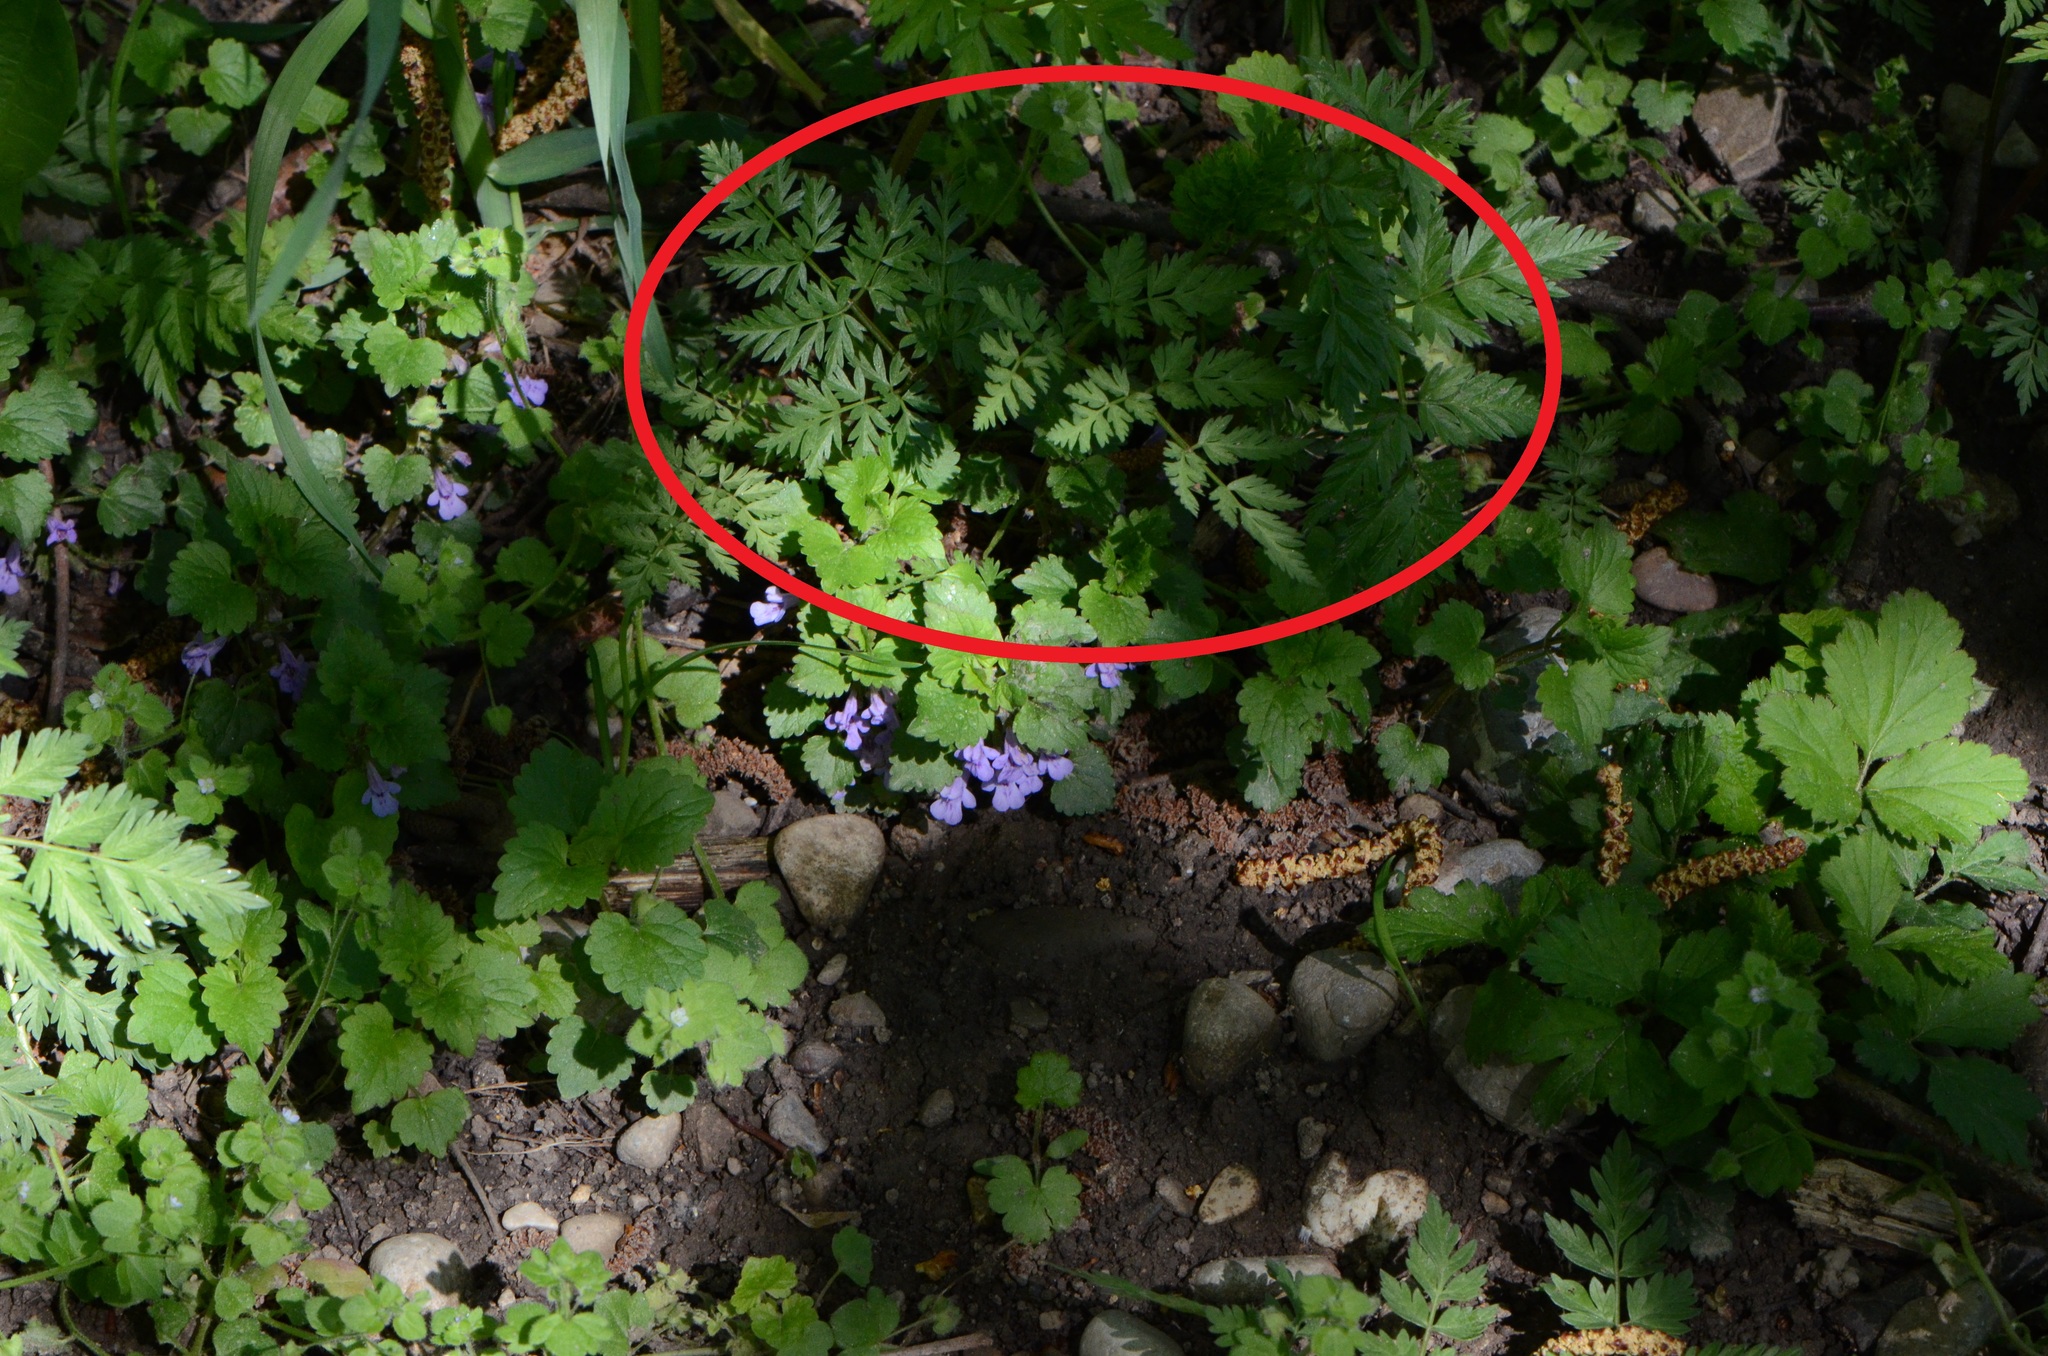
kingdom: Plantae
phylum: Tracheophyta
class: Magnoliopsida
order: Apiales
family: Apiaceae
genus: Anthriscus
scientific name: Anthriscus sylvestris
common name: Cow parsley
